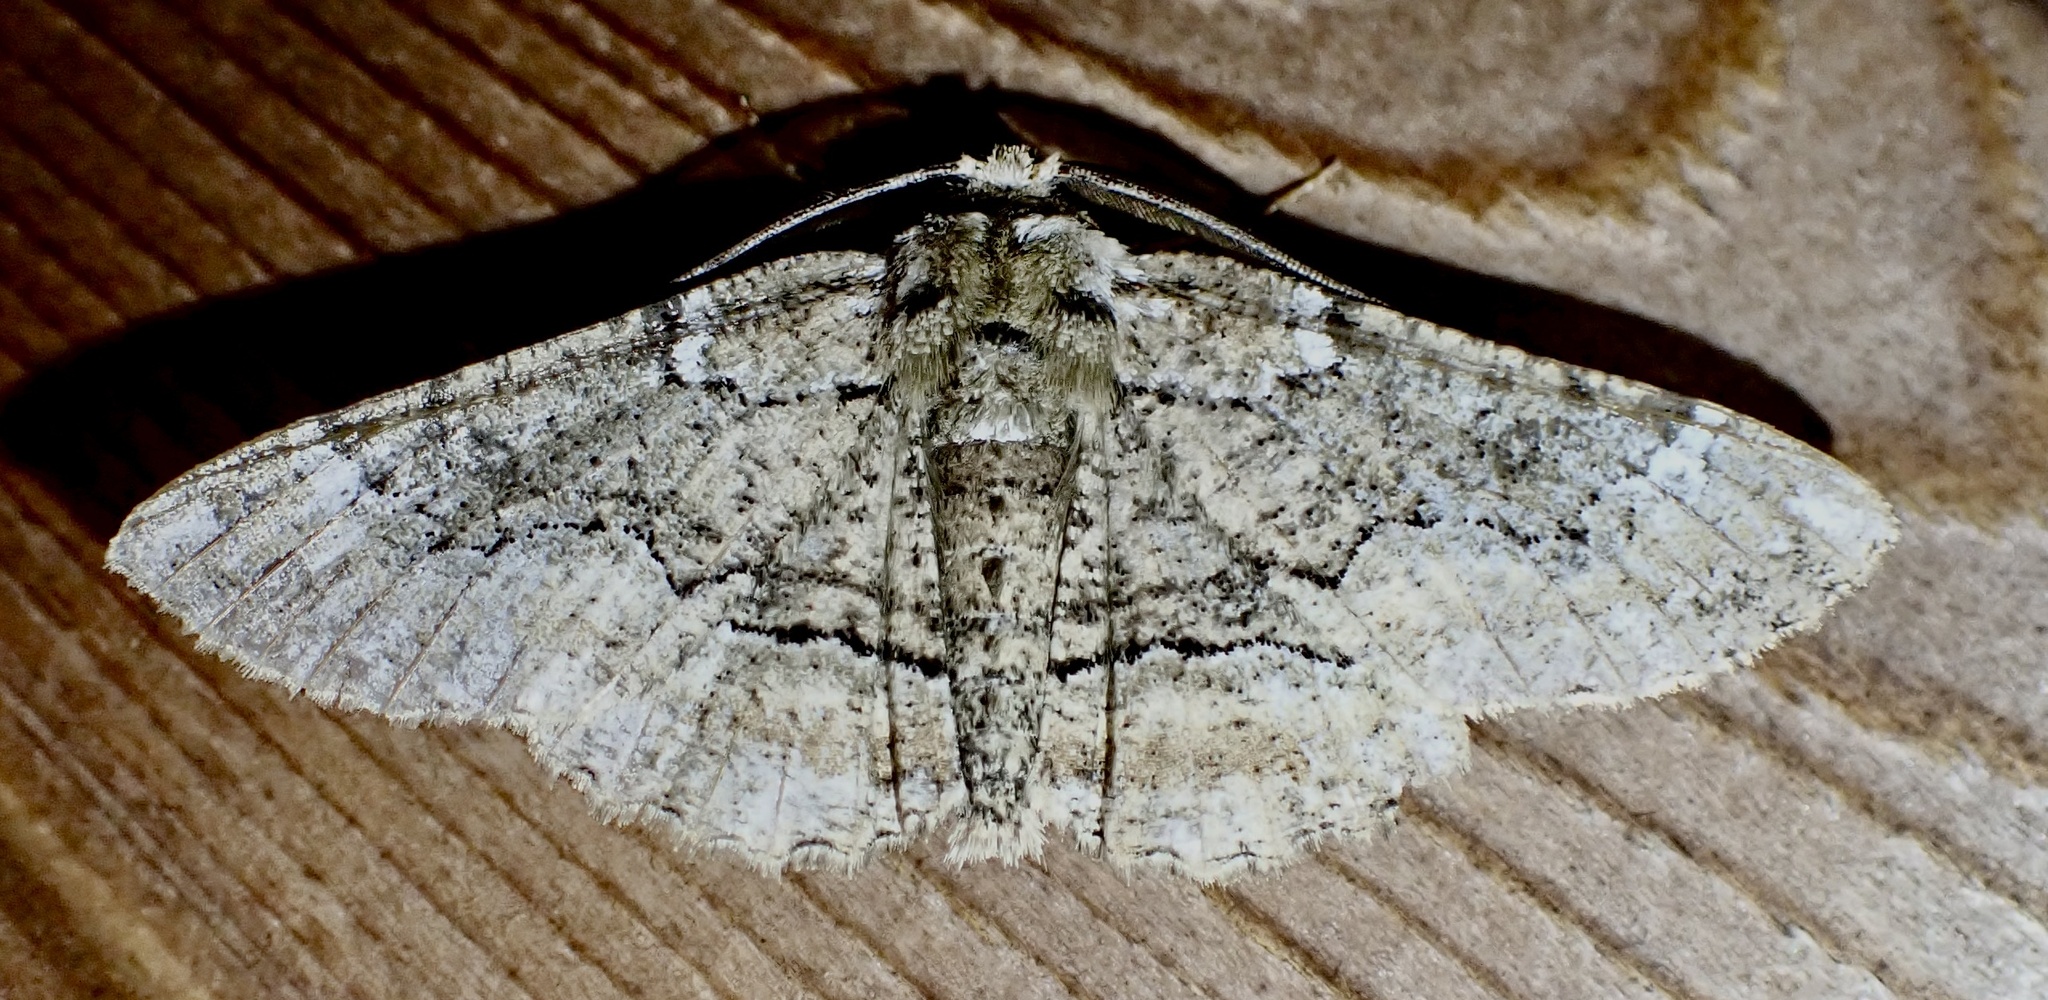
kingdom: Animalia
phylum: Arthropoda
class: Insecta
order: Lepidoptera
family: Geometridae
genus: Phaeoura
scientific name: Phaeoura quernaria
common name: Oak beauty
